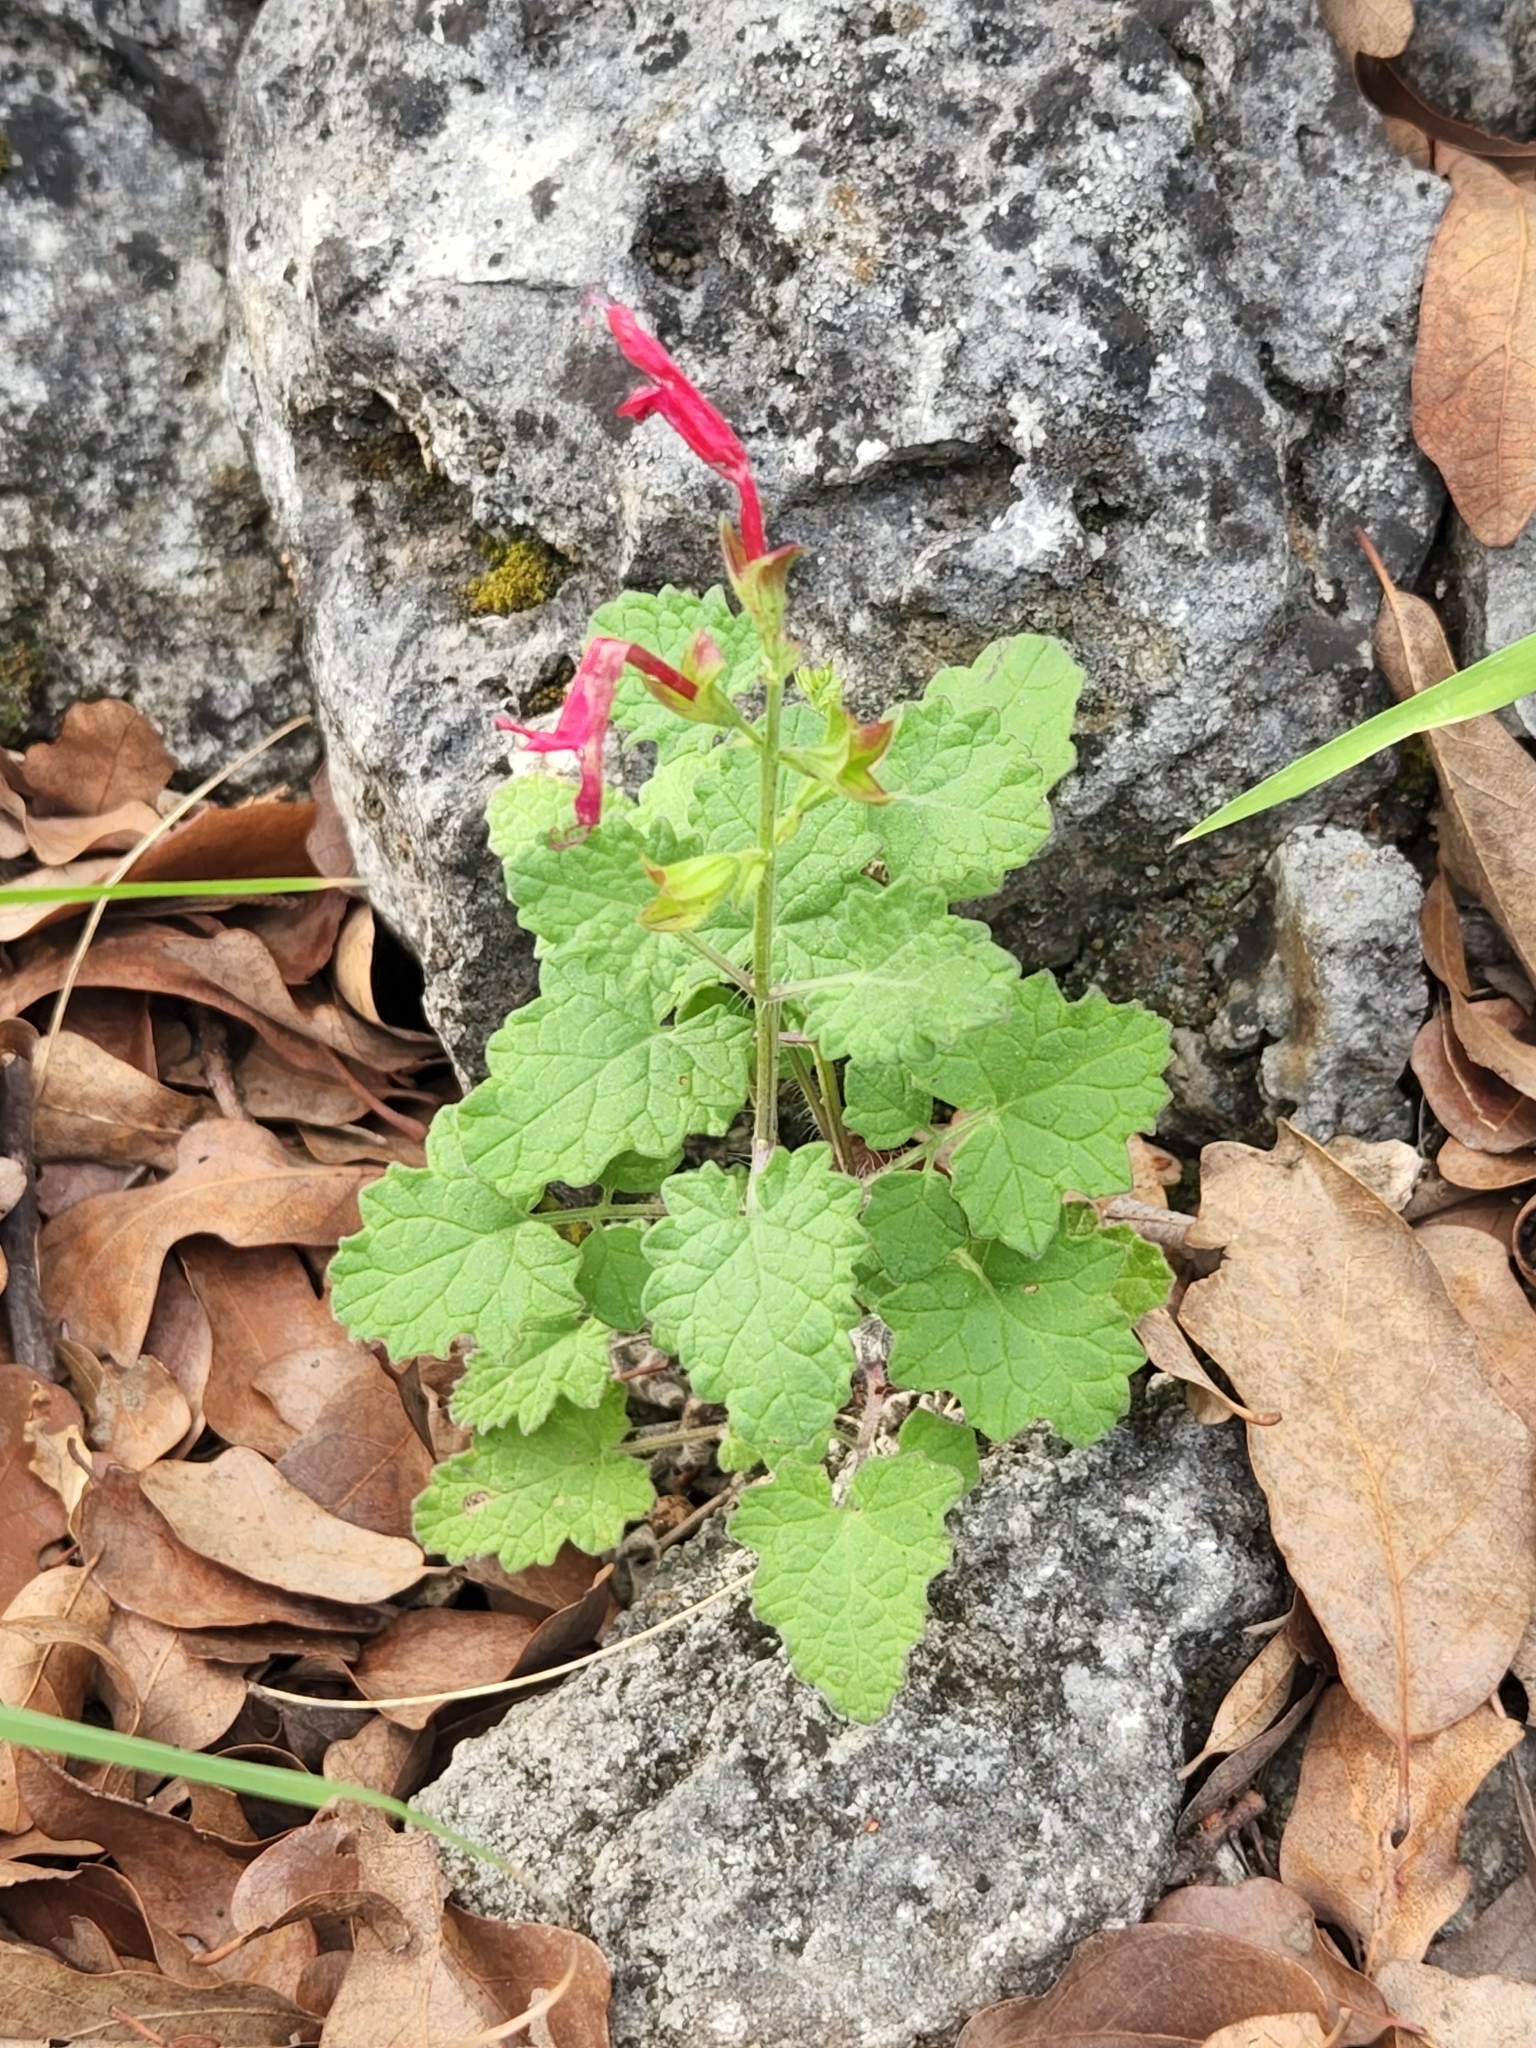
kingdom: Plantae
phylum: Tracheophyta
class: Magnoliopsida
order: Lamiales
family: Lamiaceae
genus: Salvia
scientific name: Salvia roemeriana
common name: Cedar sage
